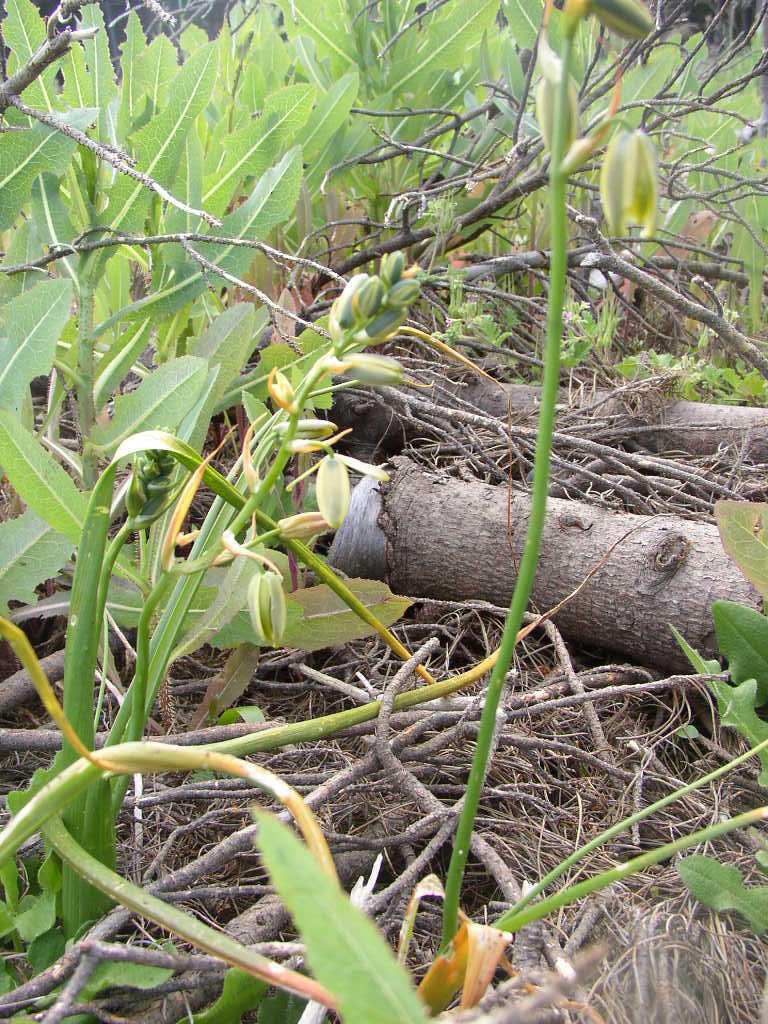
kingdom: Plantae
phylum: Tracheophyta
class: Liliopsida
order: Asparagales
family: Asparagaceae
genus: Albuca
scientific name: Albuca flaccida
